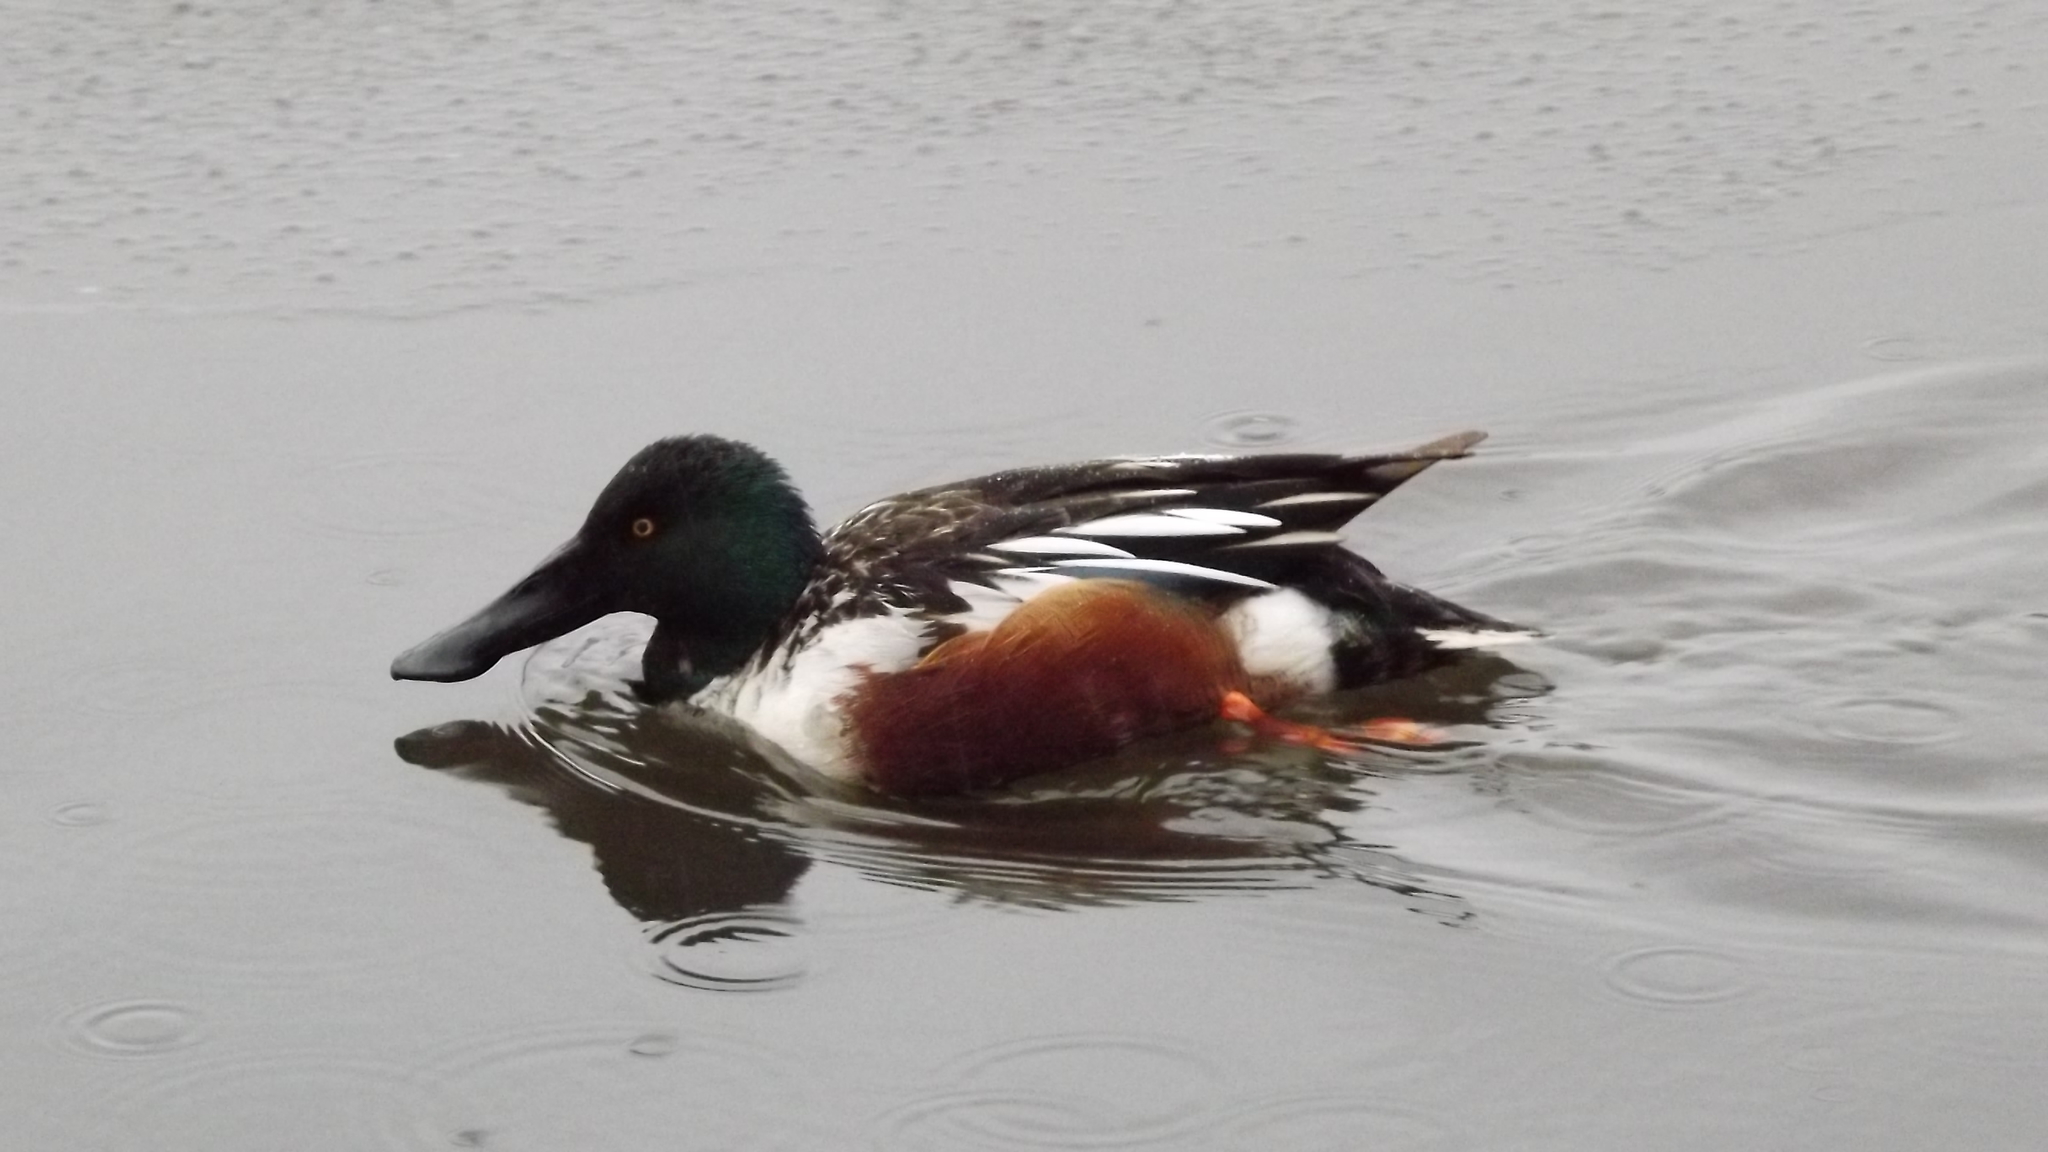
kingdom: Animalia
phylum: Chordata
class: Aves
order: Anseriformes
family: Anatidae
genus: Spatula
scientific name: Spatula clypeata
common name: Northern shoveler
